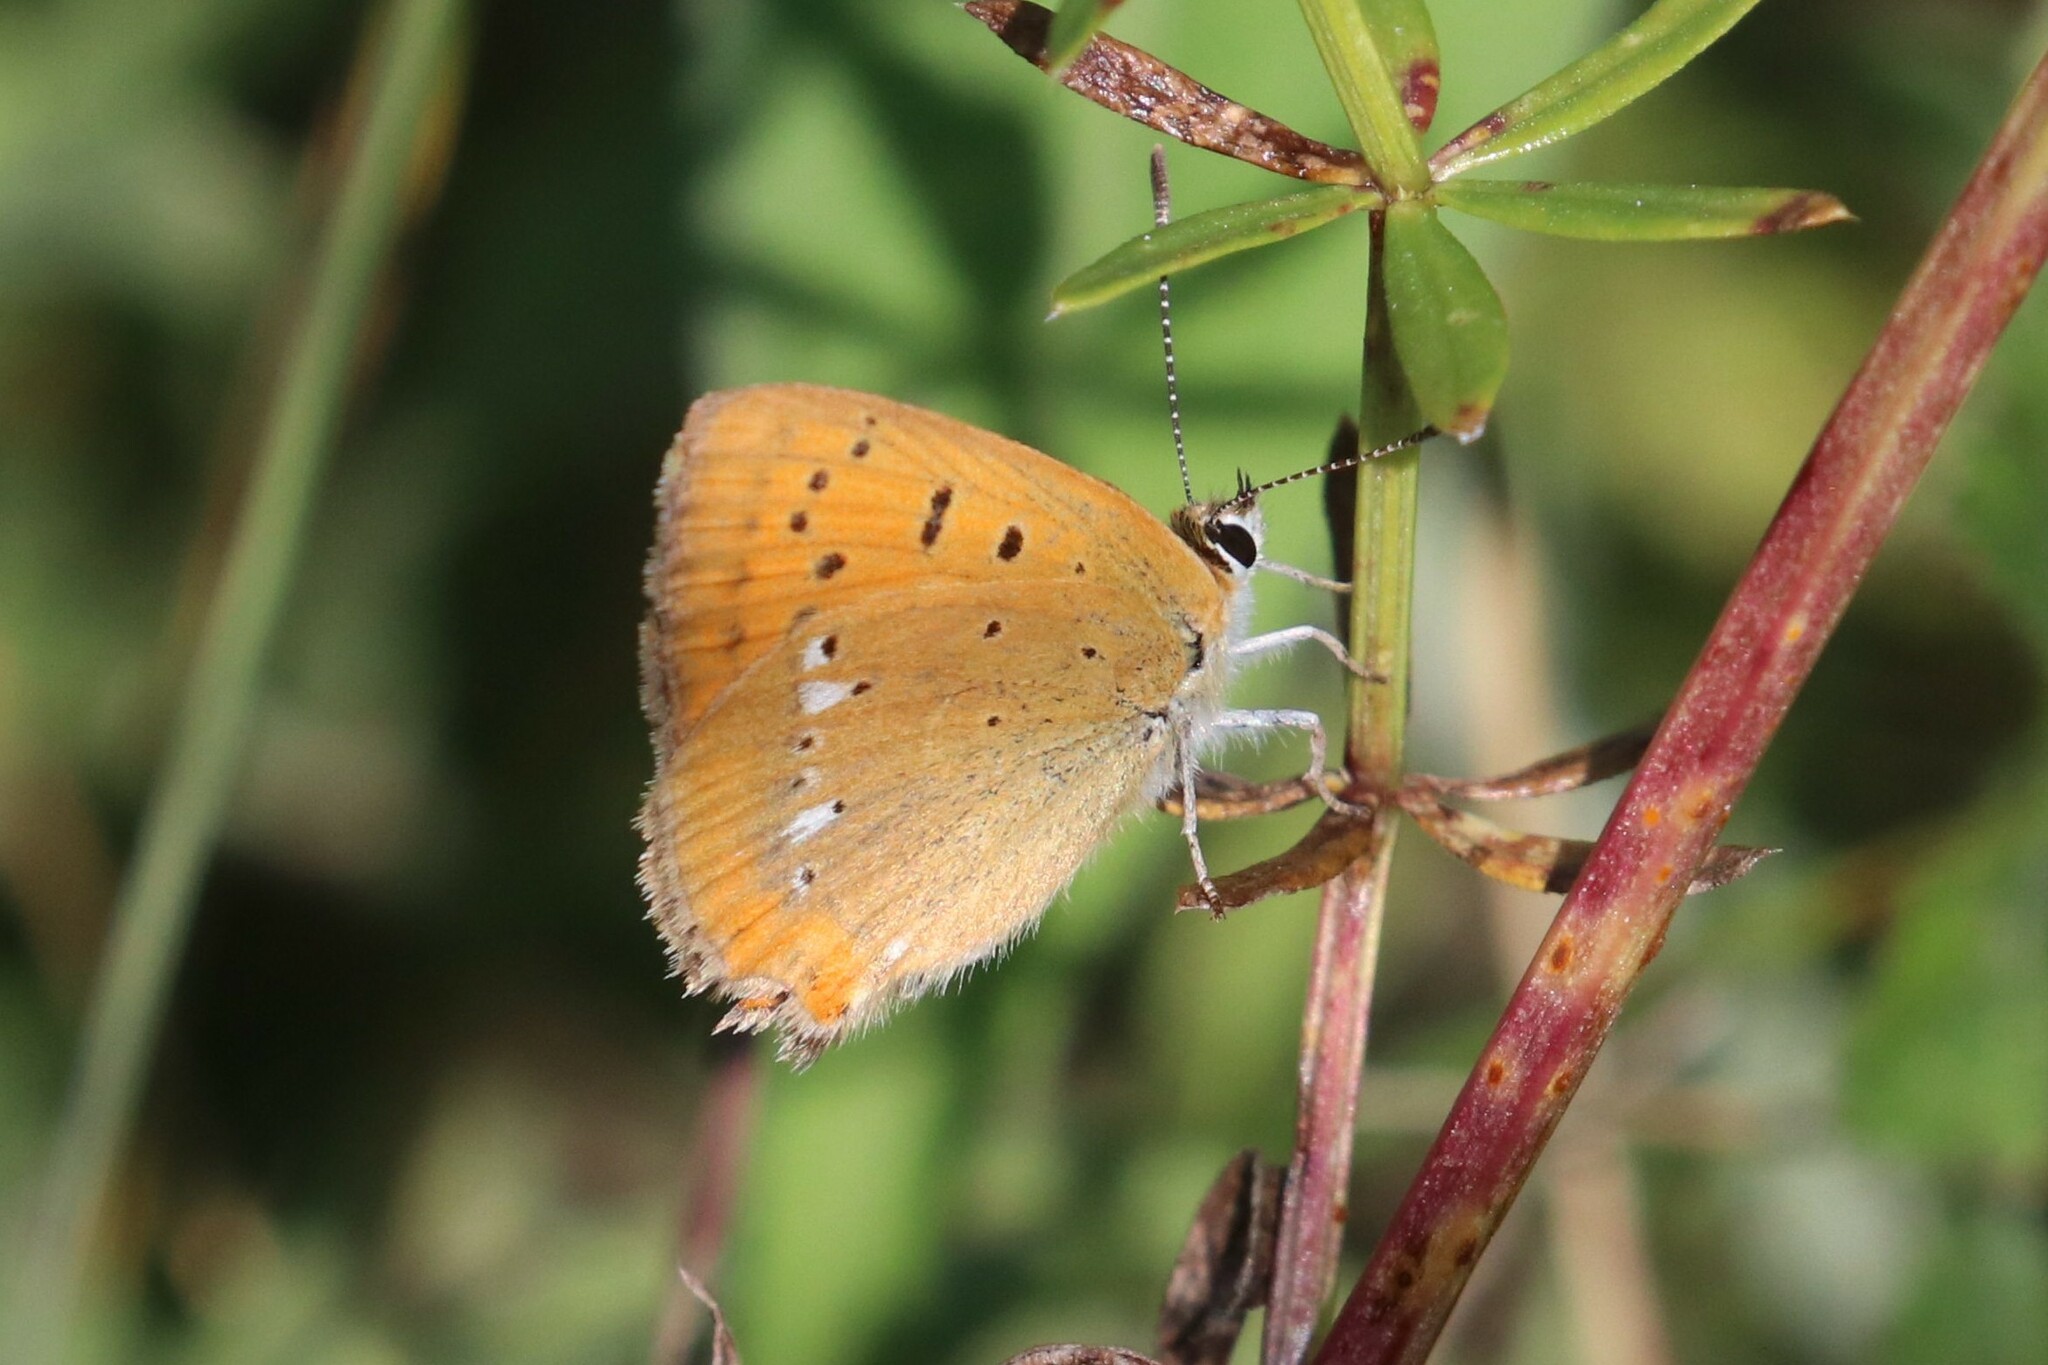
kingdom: Animalia
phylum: Arthropoda
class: Insecta
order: Lepidoptera
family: Lycaenidae
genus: Lycaena
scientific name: Lycaena virgaureae
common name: Scarce copper
